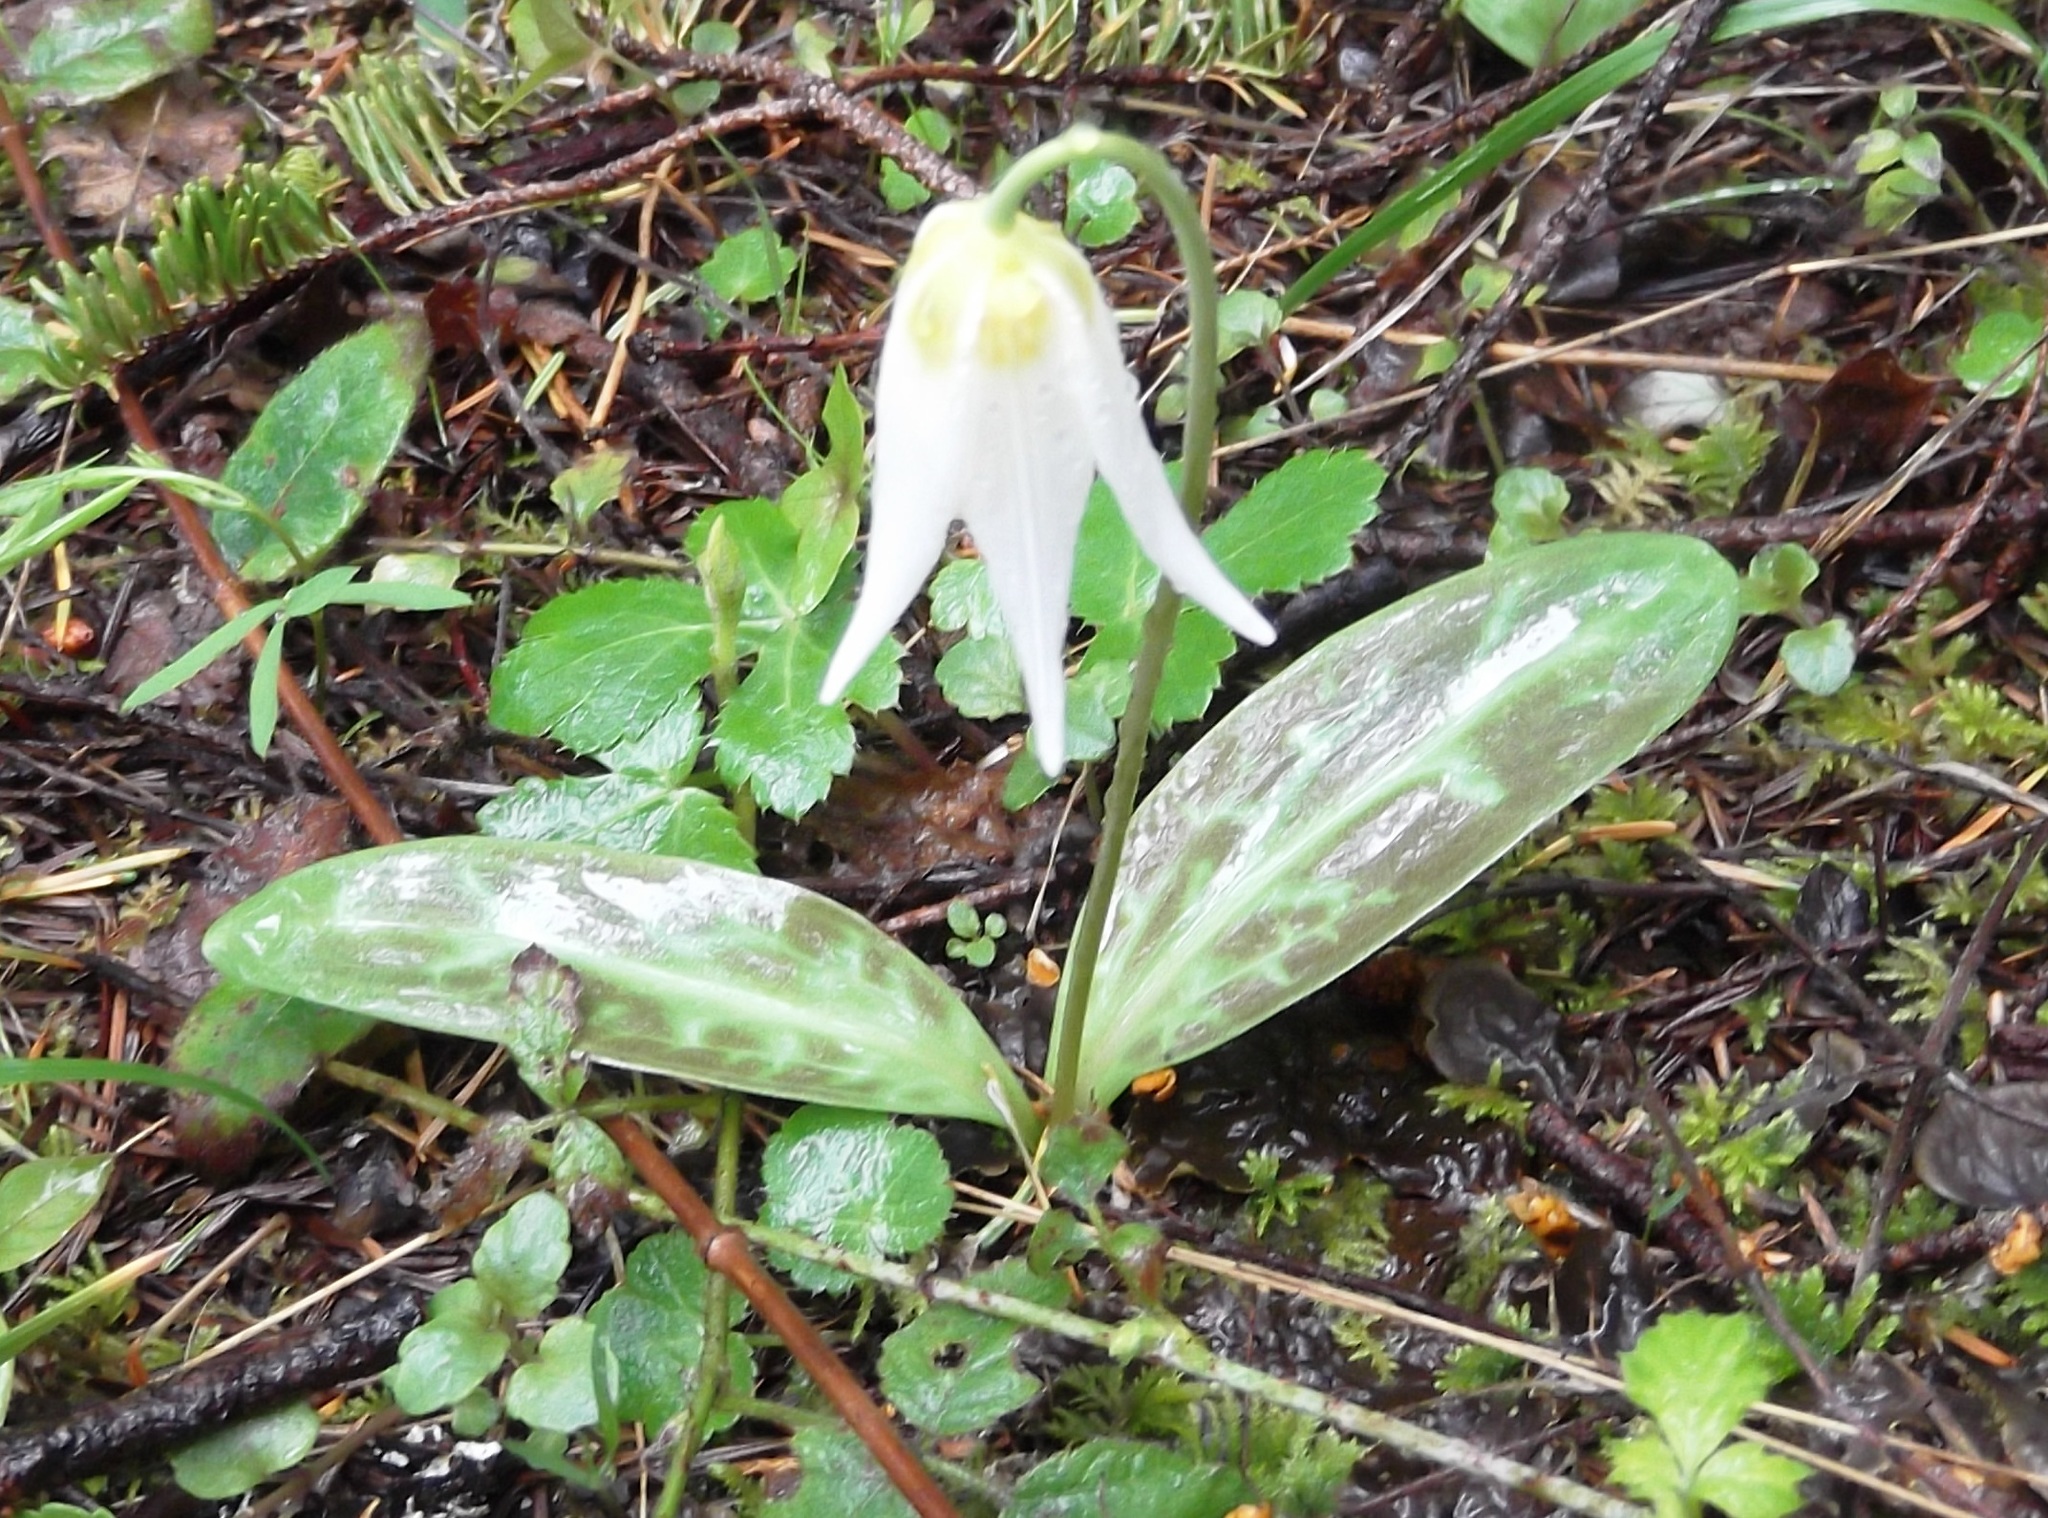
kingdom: Plantae
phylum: Tracheophyta
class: Liliopsida
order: Liliales
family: Liliaceae
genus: Erythronium
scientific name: Erythronium oregonum
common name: Giant adder's-tongue
